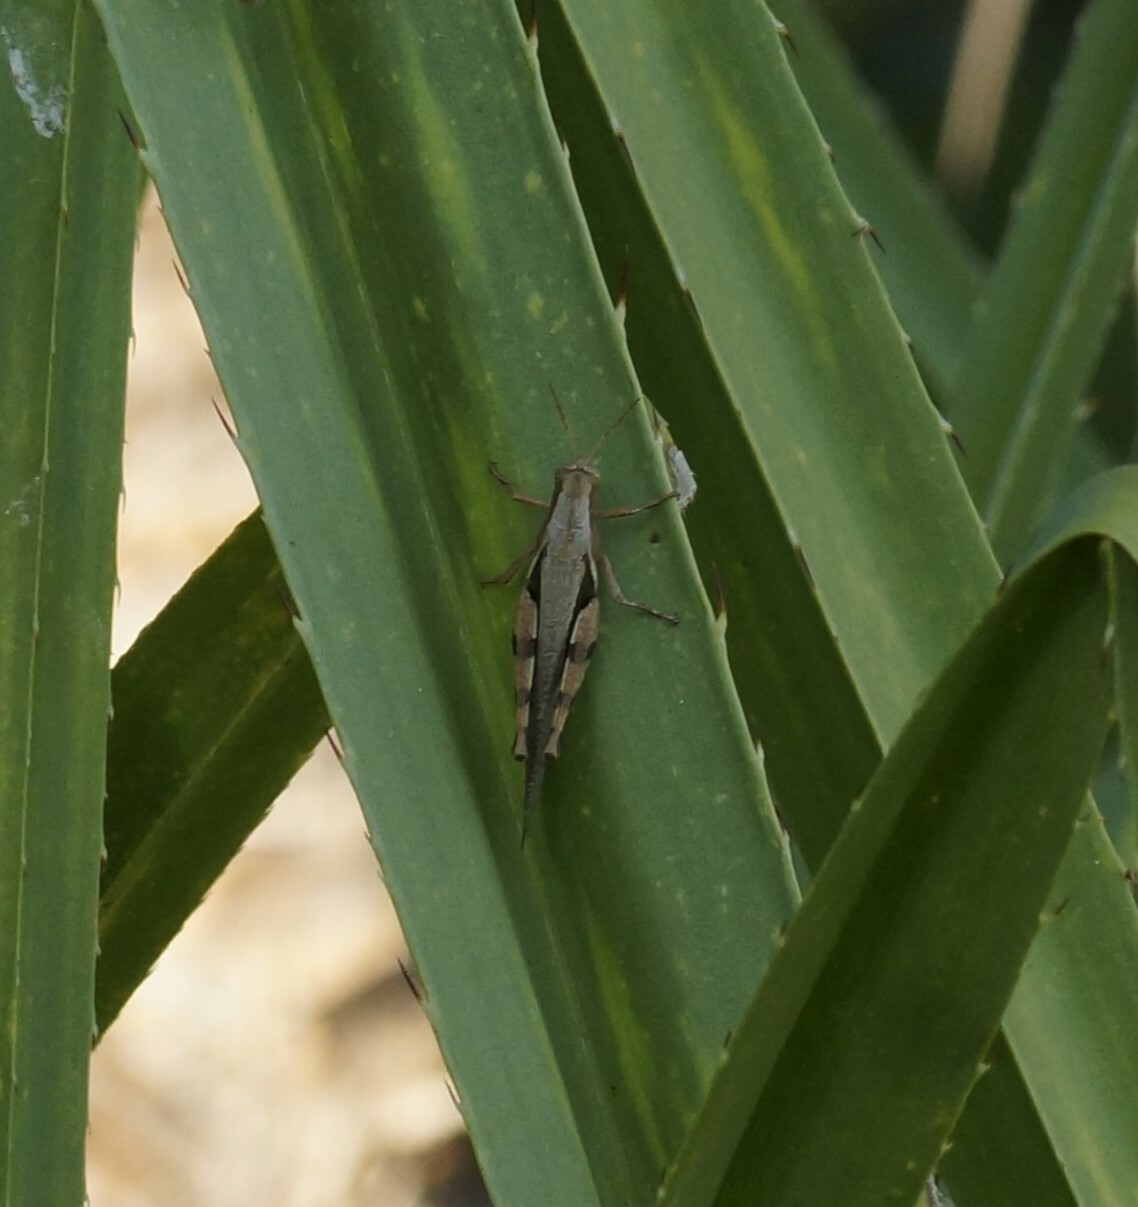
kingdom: Animalia
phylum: Arthropoda
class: Insecta
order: Orthoptera
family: Acrididae
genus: Stenocatantops
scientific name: Stenocatantops angustifrons
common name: Common tropical sharptail
